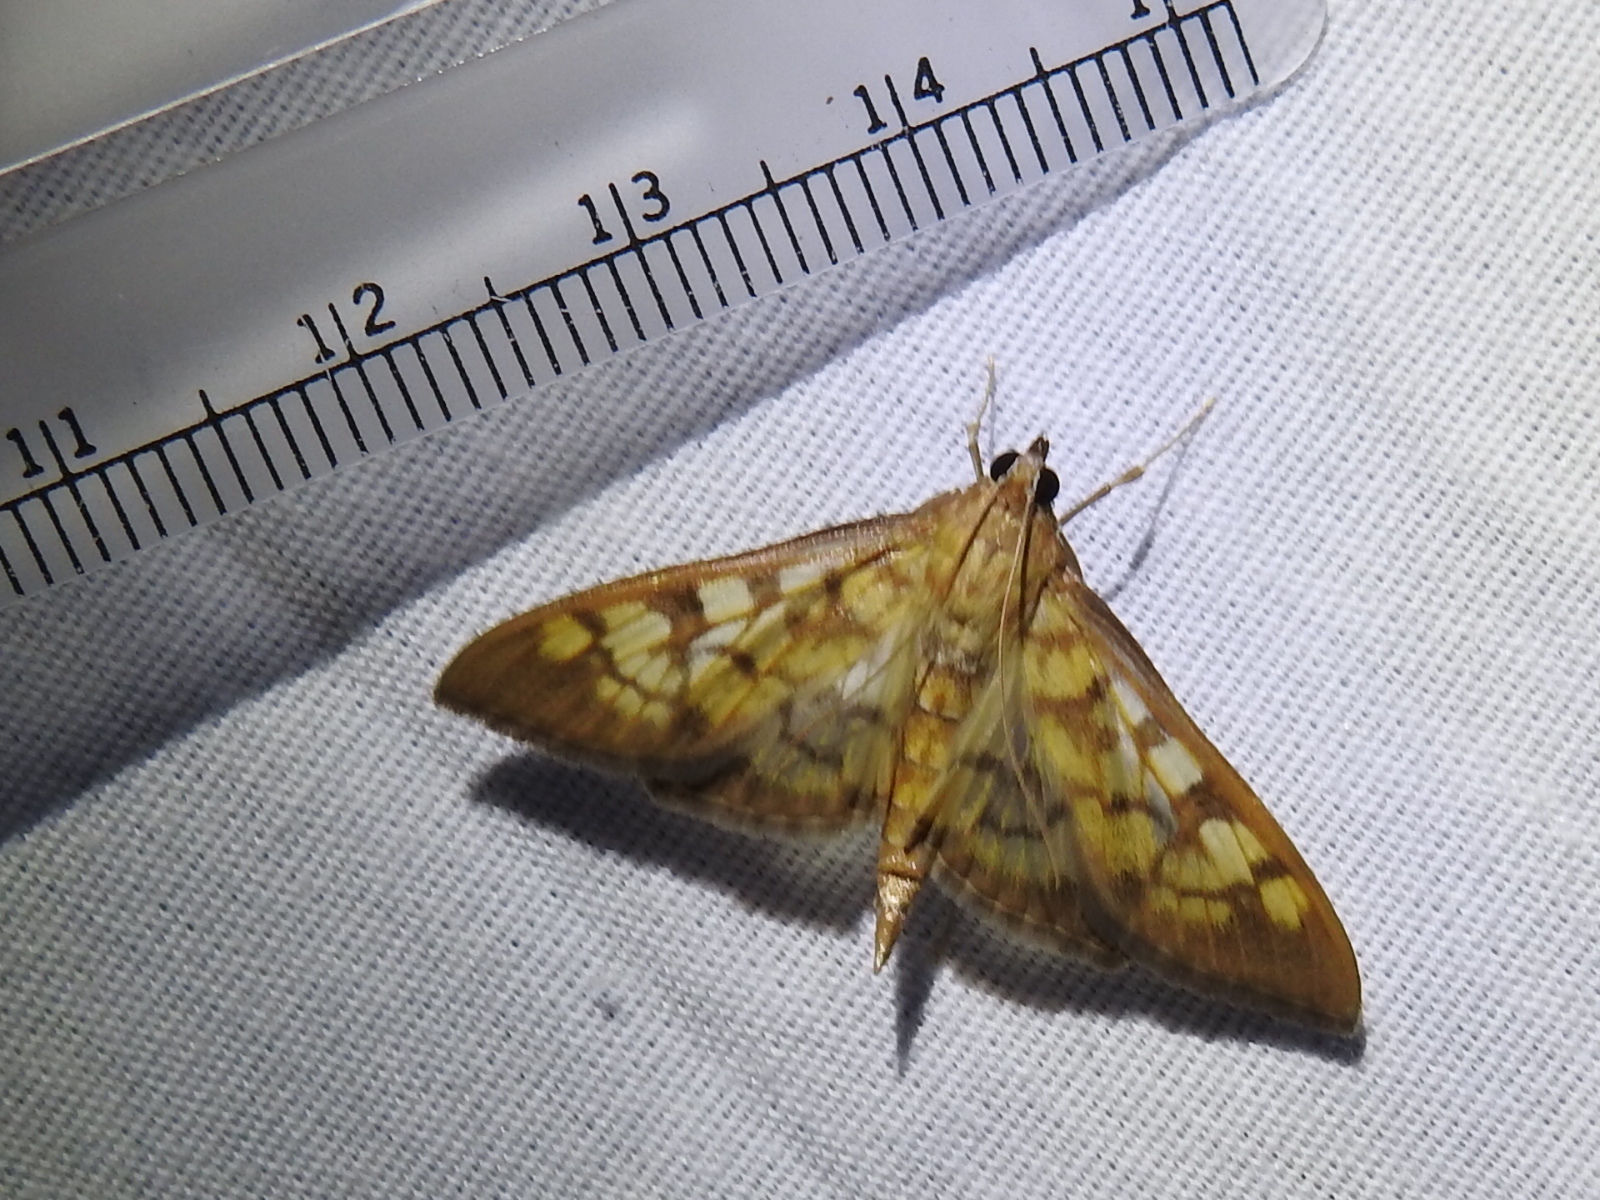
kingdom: Animalia
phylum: Arthropoda
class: Insecta
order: Lepidoptera
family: Crambidae
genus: Mimorista
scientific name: Mimorista subcostalis
